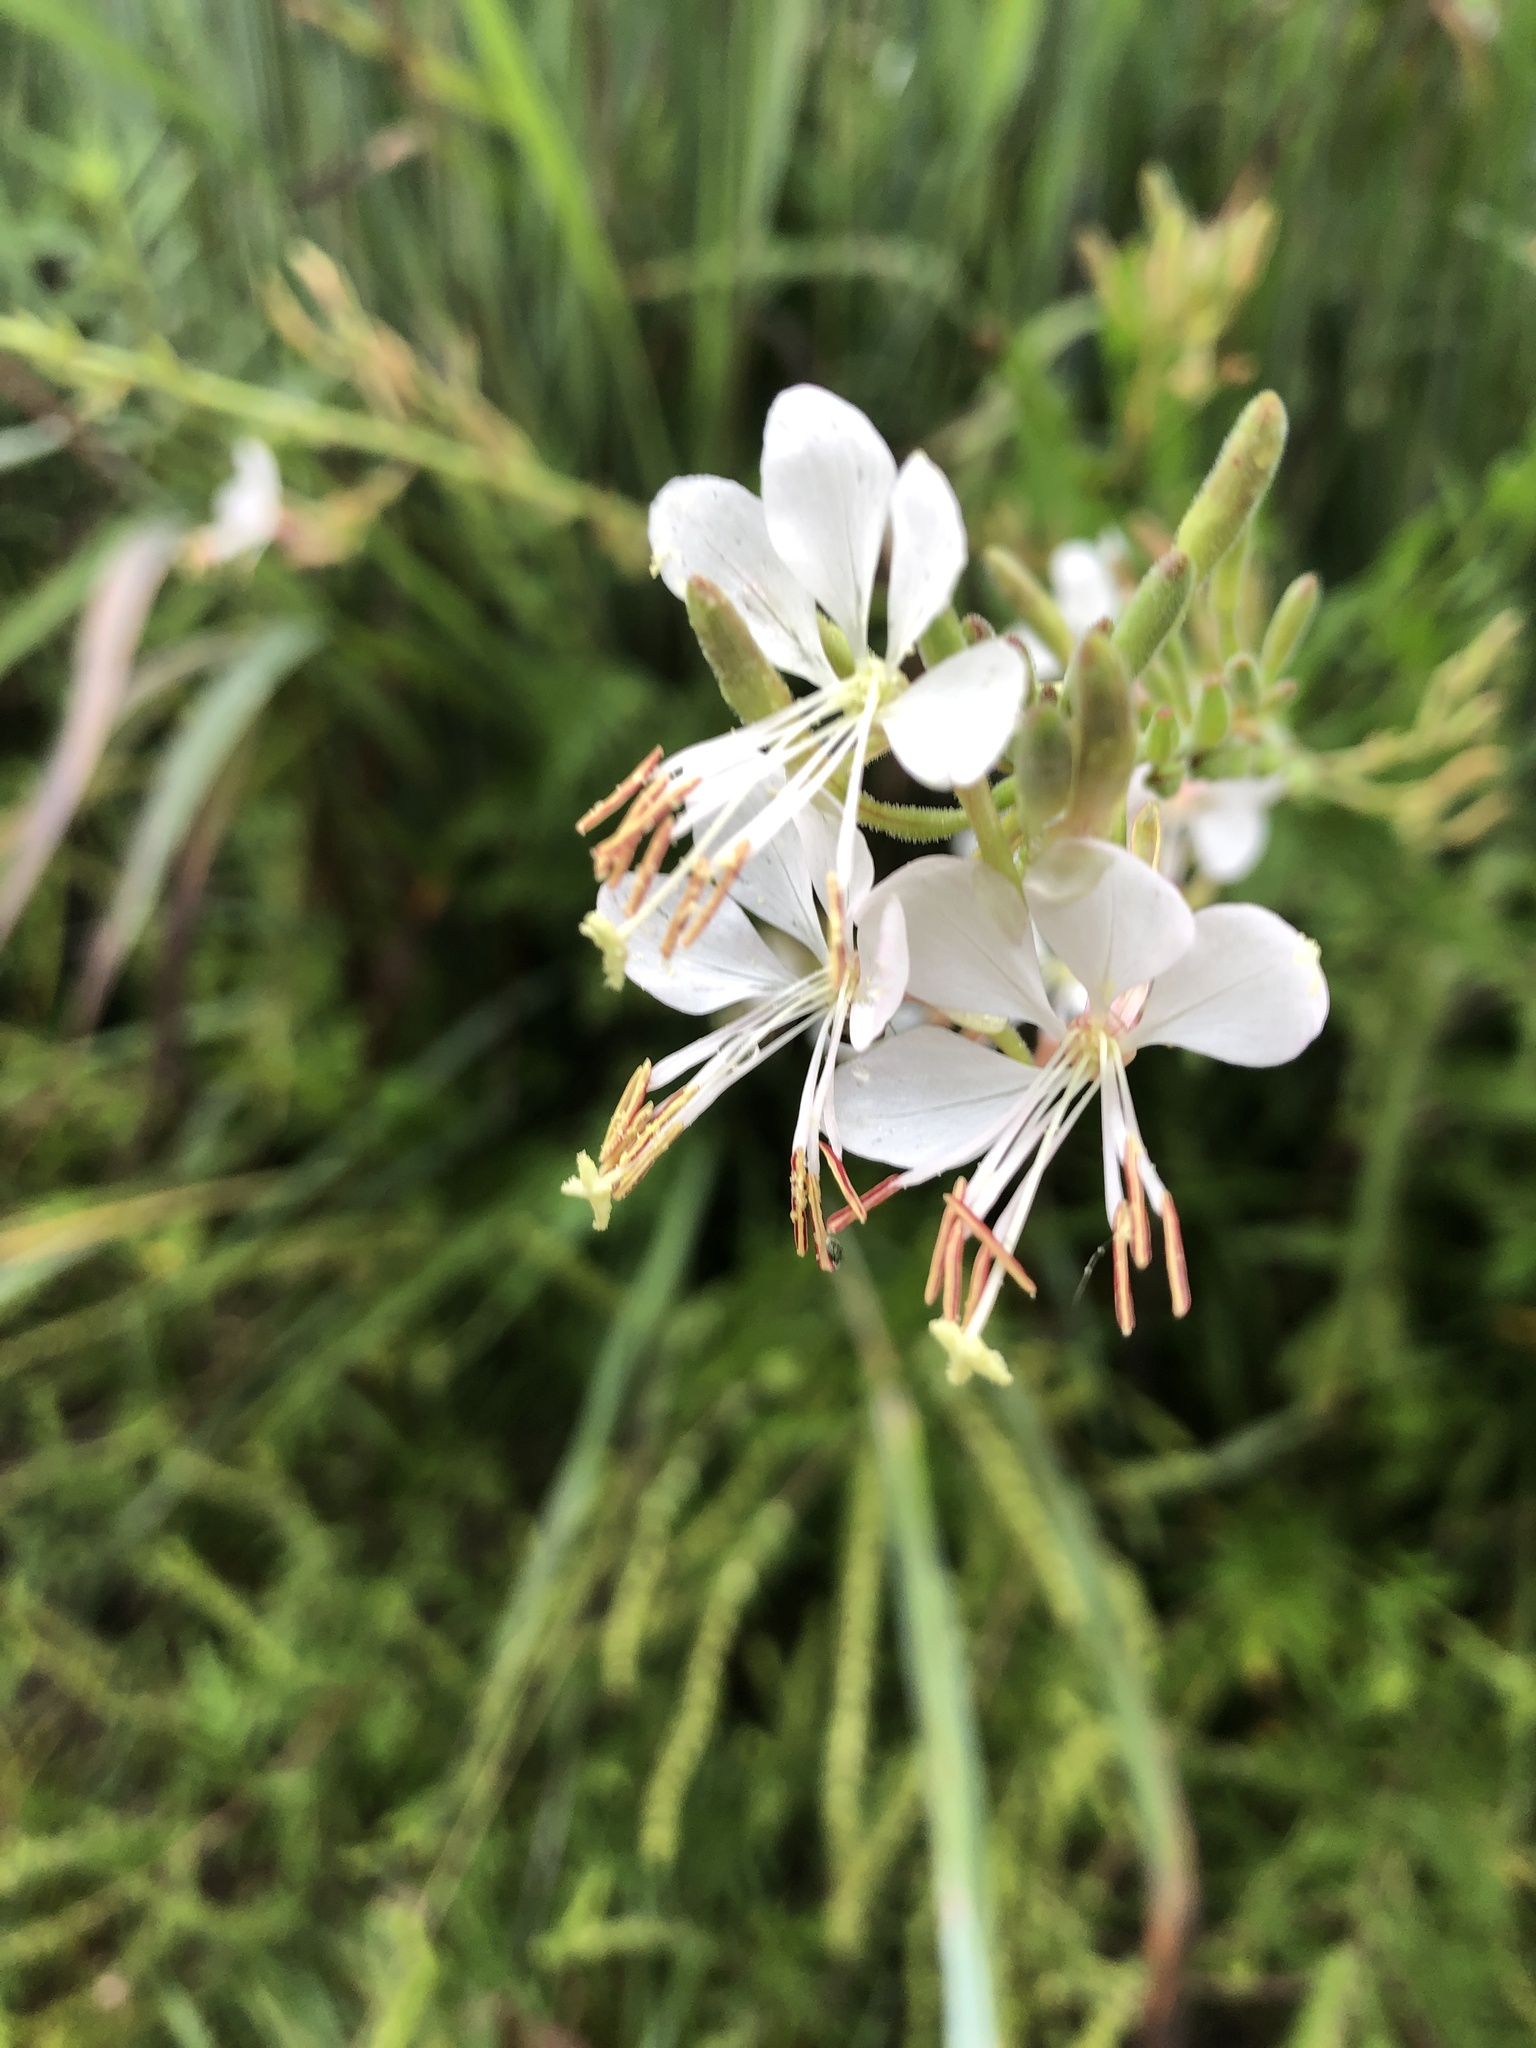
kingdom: Plantae
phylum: Tracheophyta
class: Magnoliopsida
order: Myrtales
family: Onagraceae
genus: Oenothera
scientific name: Oenothera gaura
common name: Biennial beeblossom
